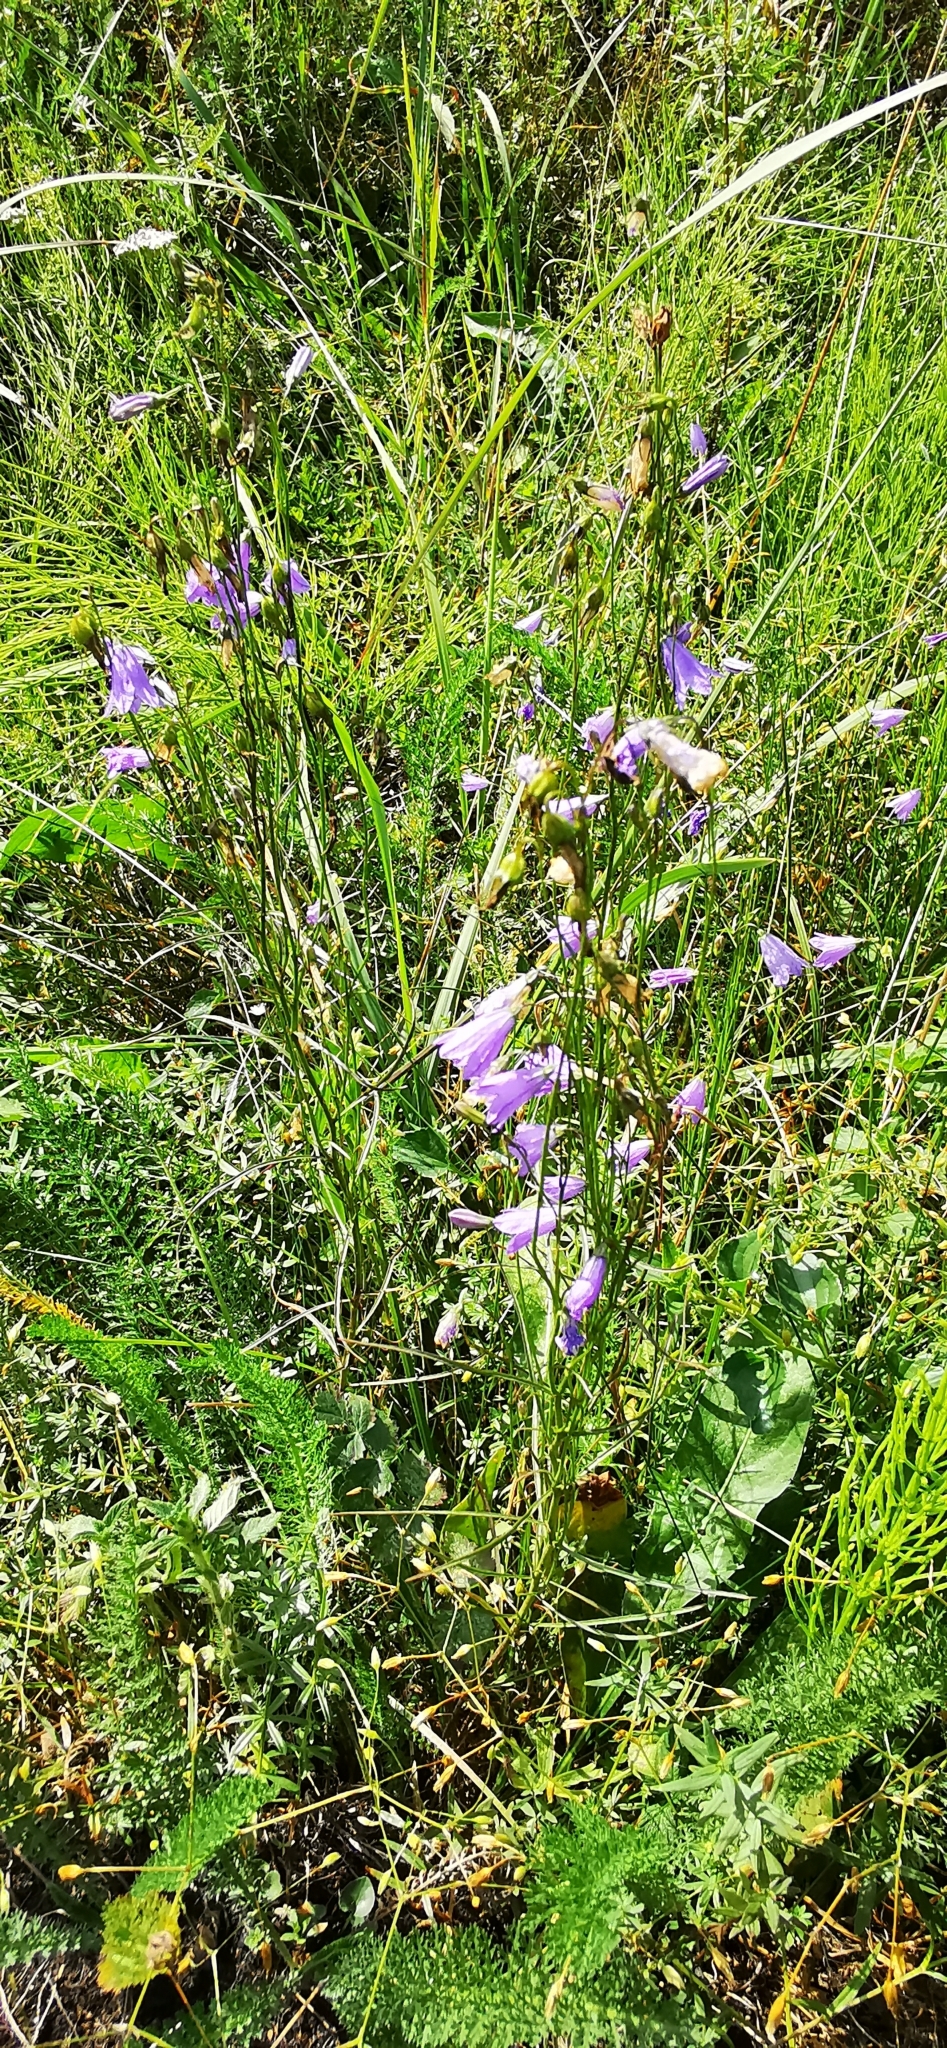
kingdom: Plantae
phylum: Tracheophyta
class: Magnoliopsida
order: Asterales
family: Campanulaceae
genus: Campanula
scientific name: Campanula rotundifolia
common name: Harebell
